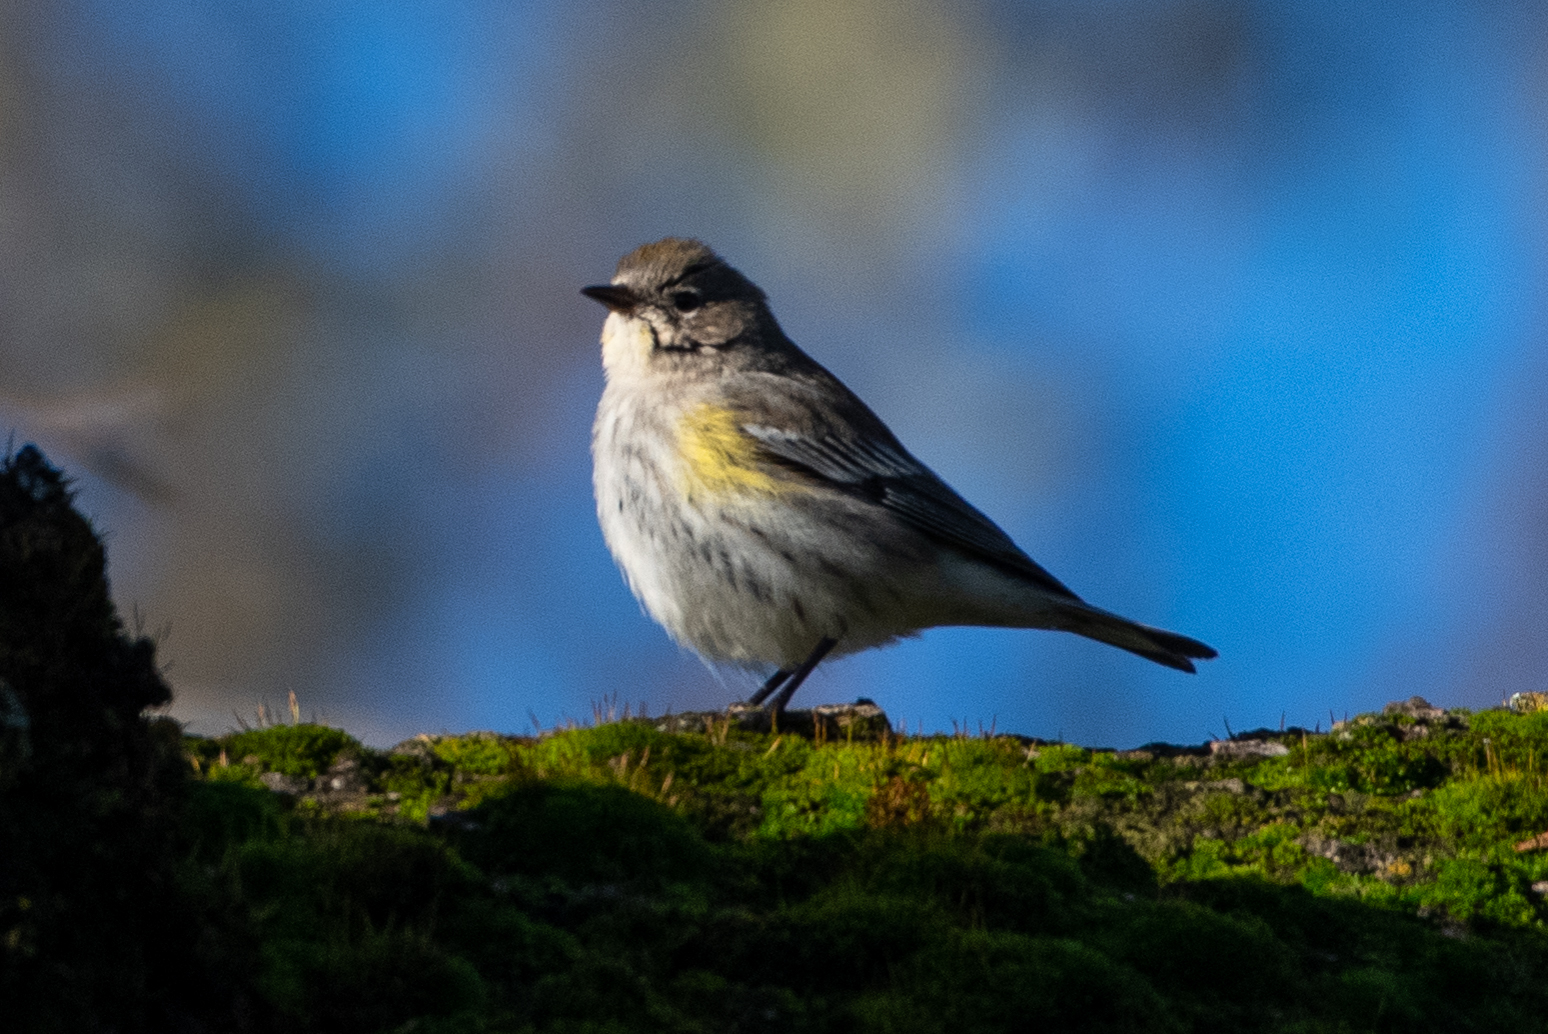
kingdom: Animalia
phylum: Chordata
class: Aves
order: Passeriformes
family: Parulidae
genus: Setophaga
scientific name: Setophaga coronata
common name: Myrtle warbler
